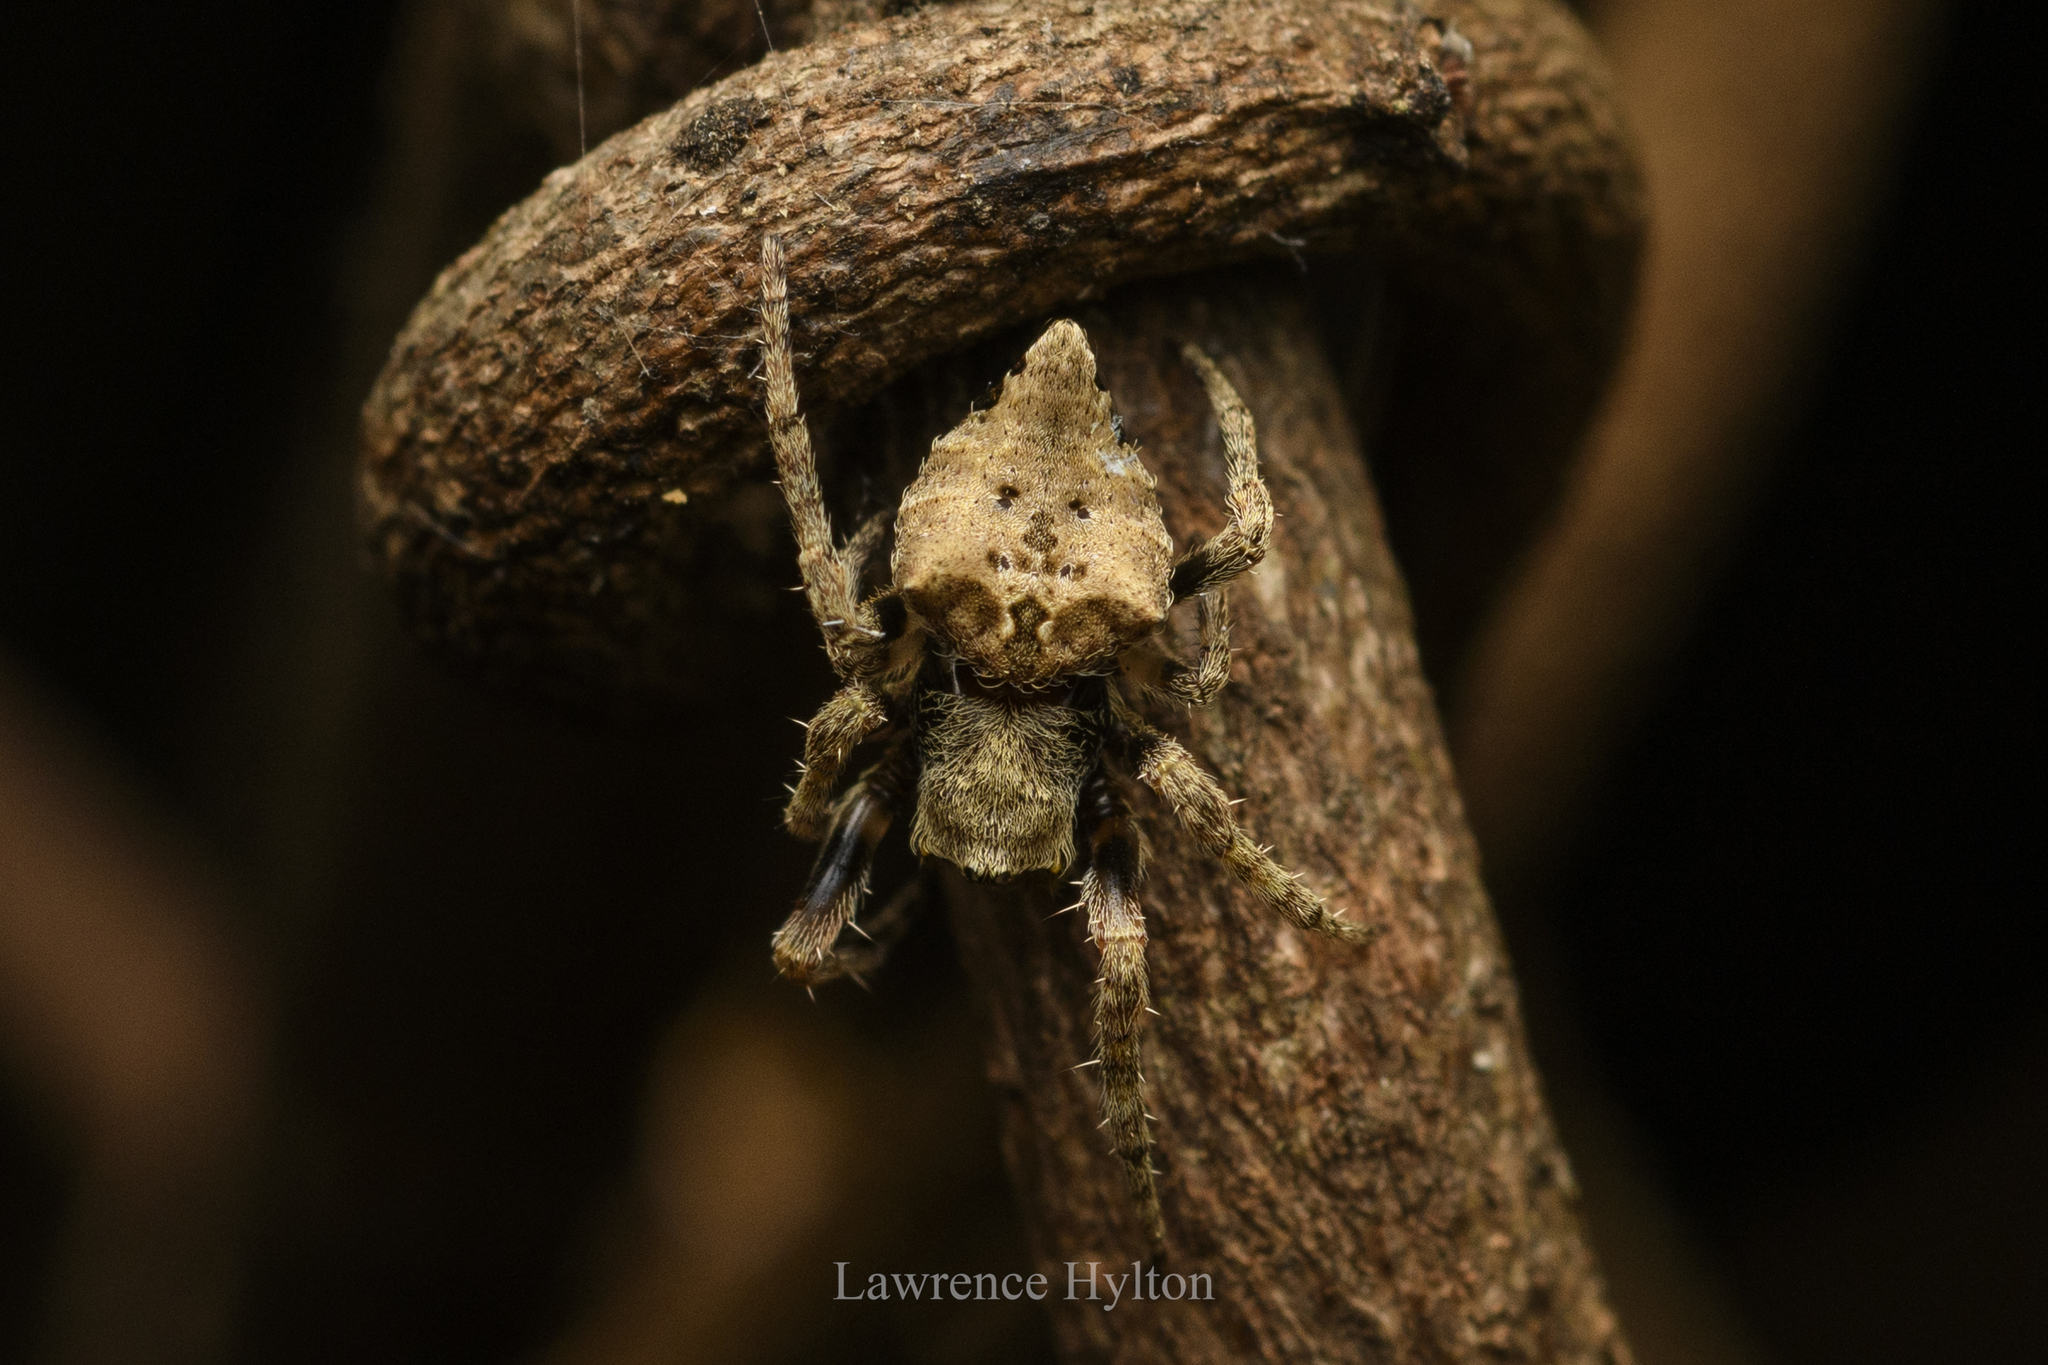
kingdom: Animalia
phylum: Arthropoda
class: Arachnida
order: Araneae
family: Araneidae
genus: Parawixia
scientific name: Parawixia dehaani
